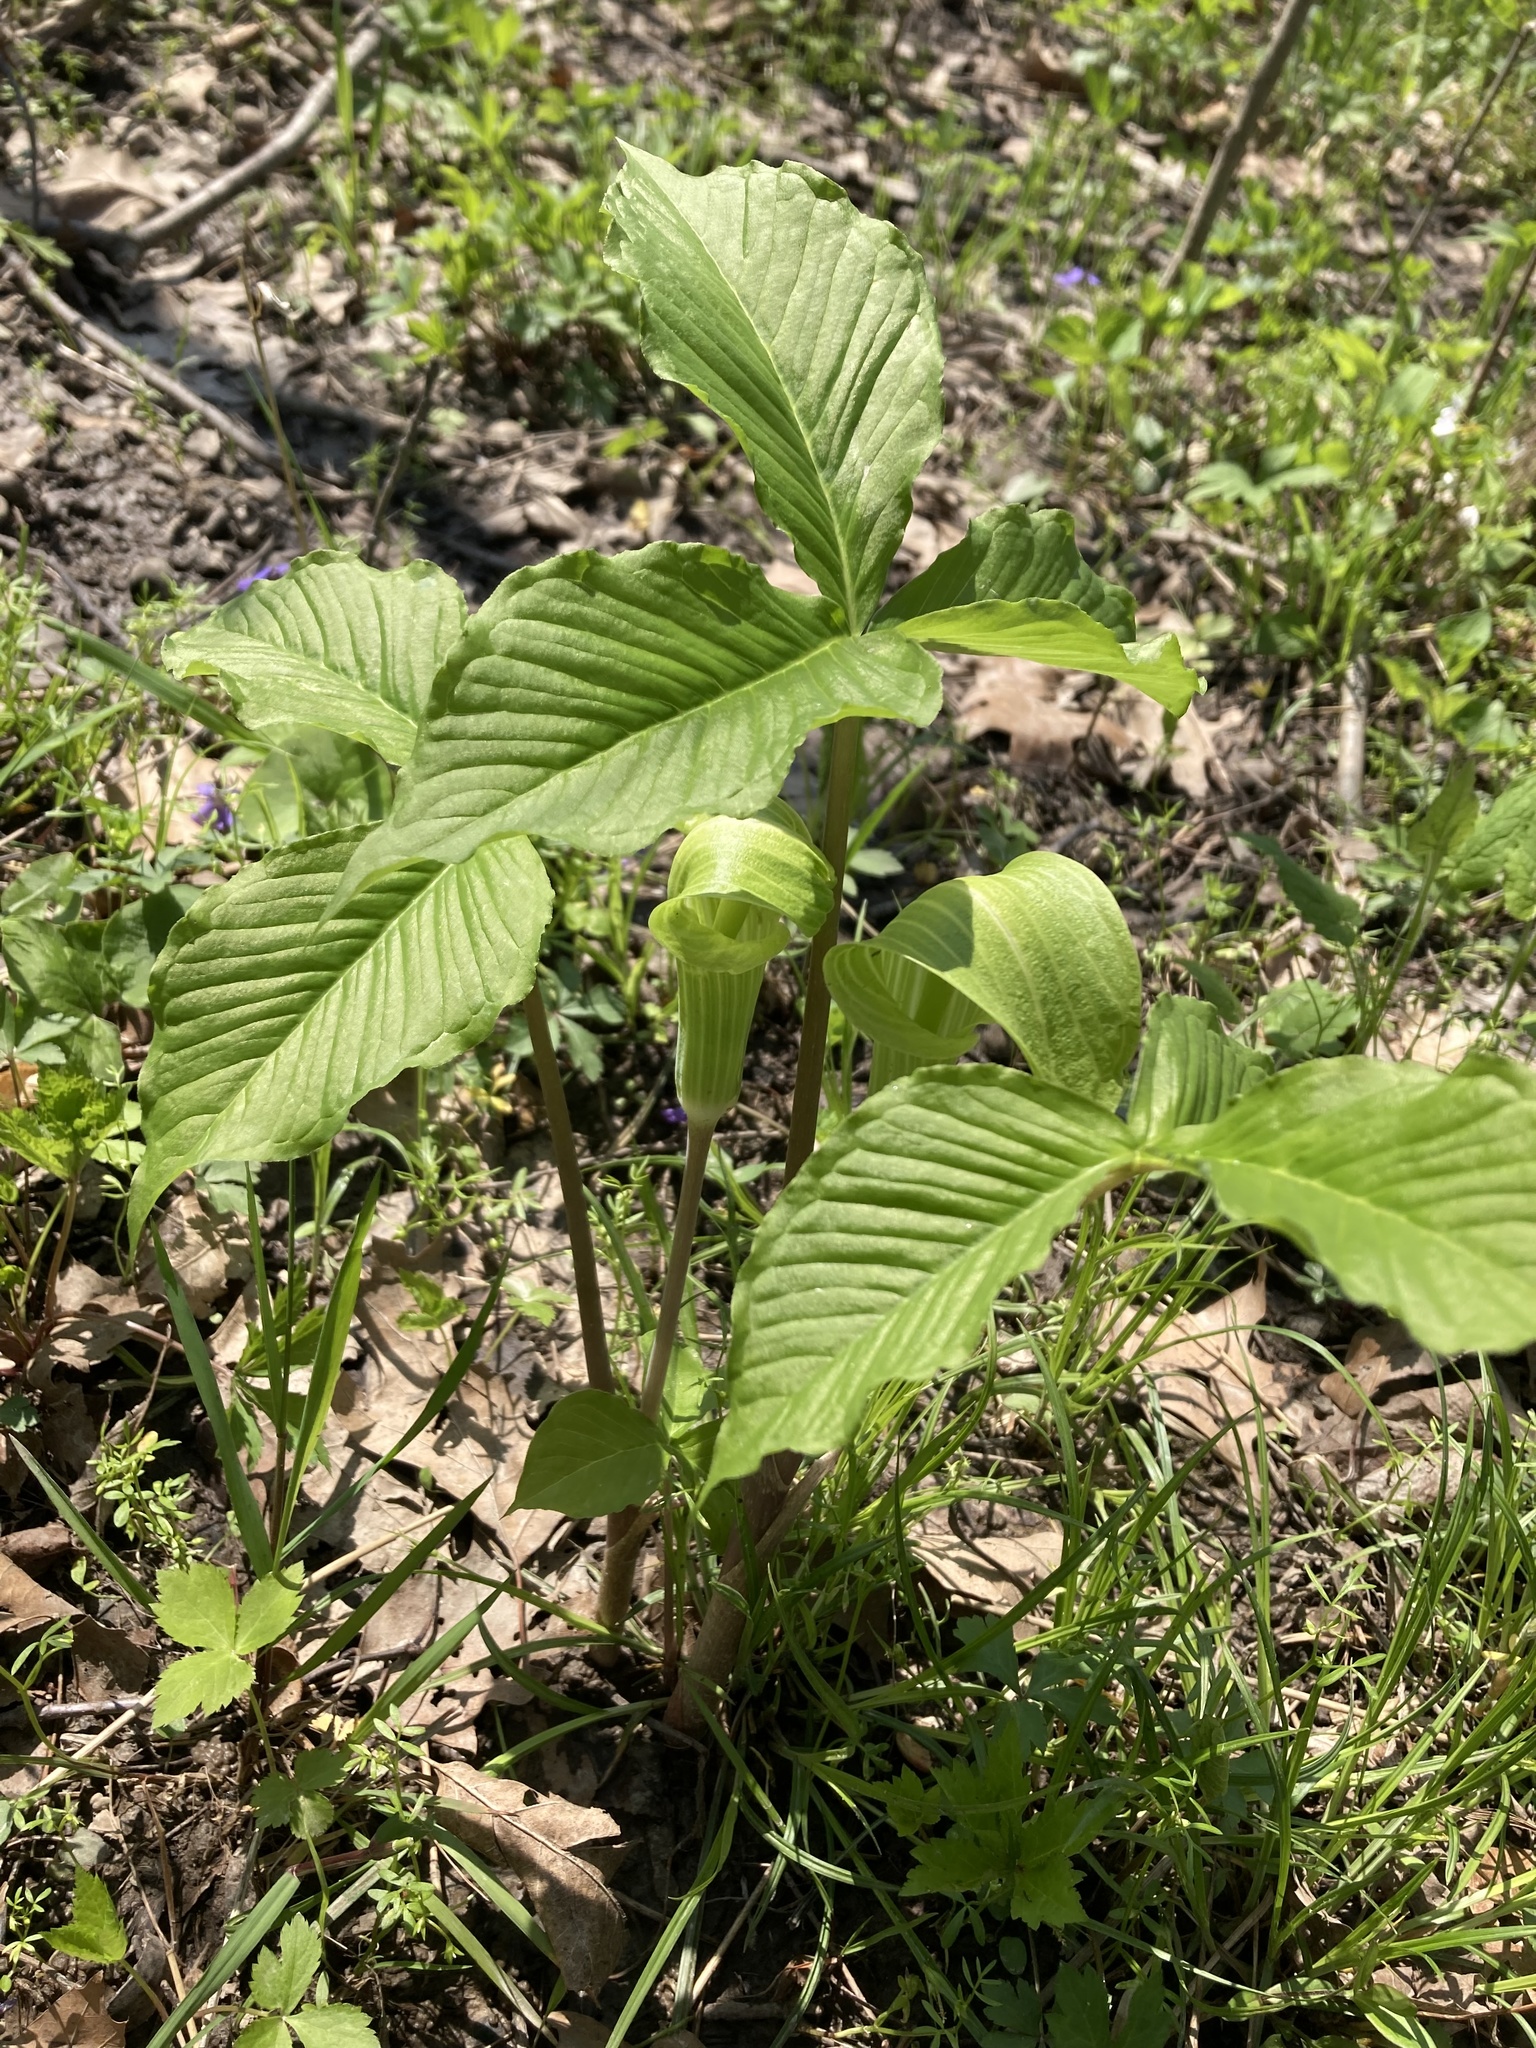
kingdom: Plantae
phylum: Tracheophyta
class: Liliopsida
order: Alismatales
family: Araceae
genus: Arisaema
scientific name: Arisaema triphyllum
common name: Jack-in-the-pulpit
